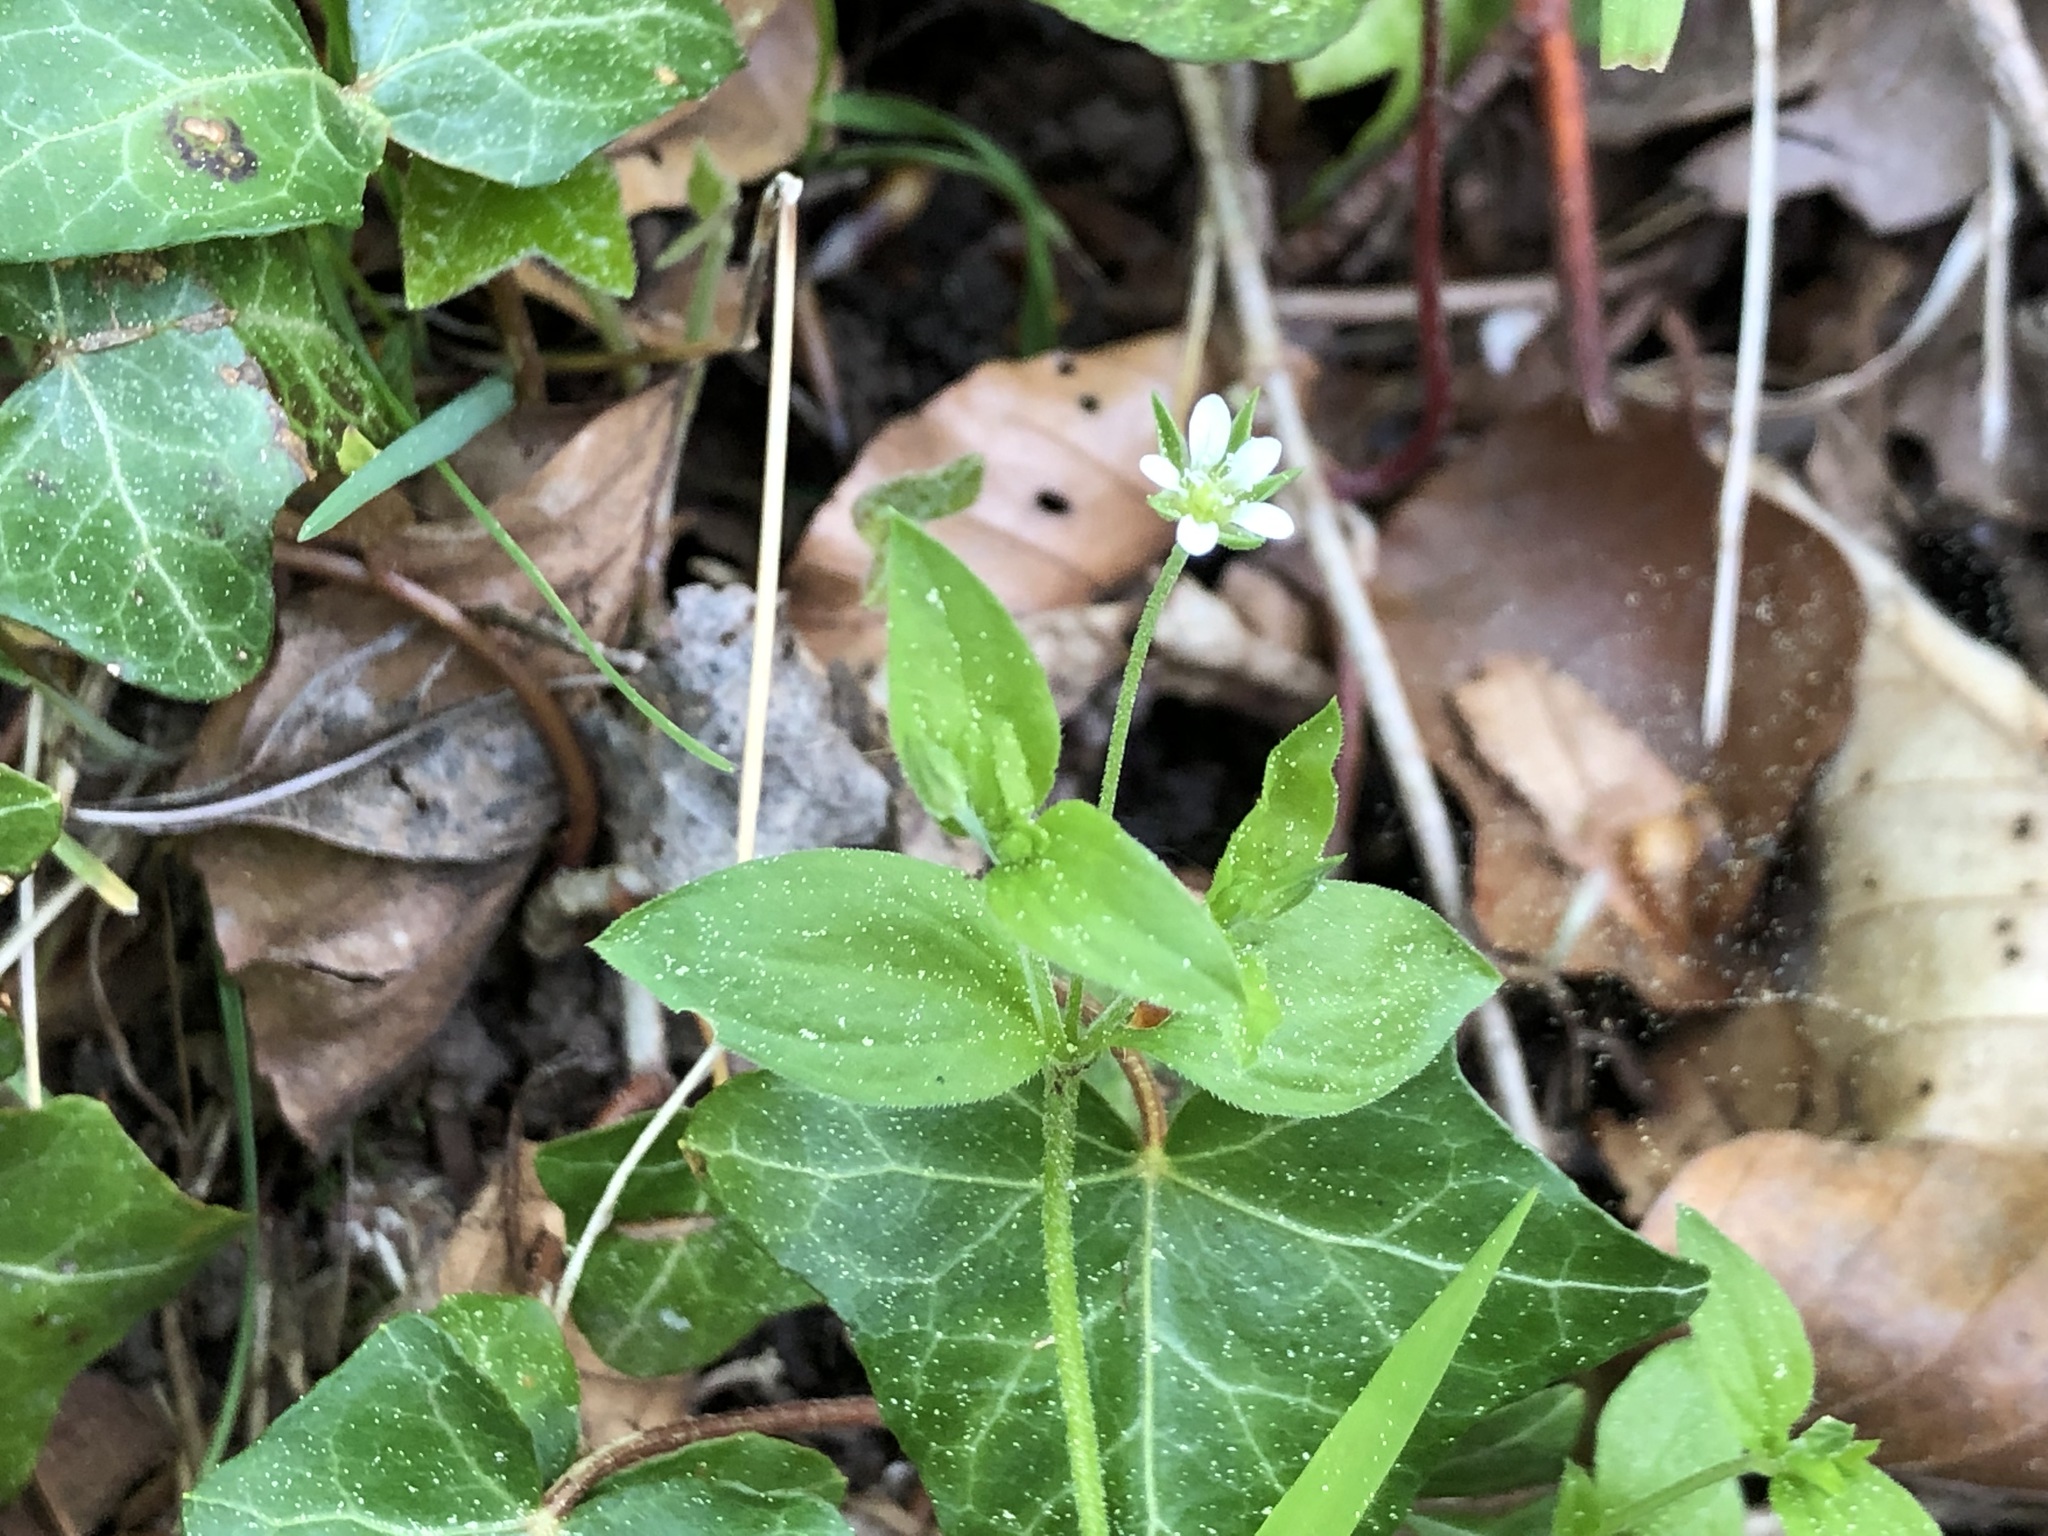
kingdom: Plantae
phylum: Tracheophyta
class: Magnoliopsida
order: Caryophyllales
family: Caryophyllaceae
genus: Moehringia
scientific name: Moehringia trinervia
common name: Three-nerved sandwort
